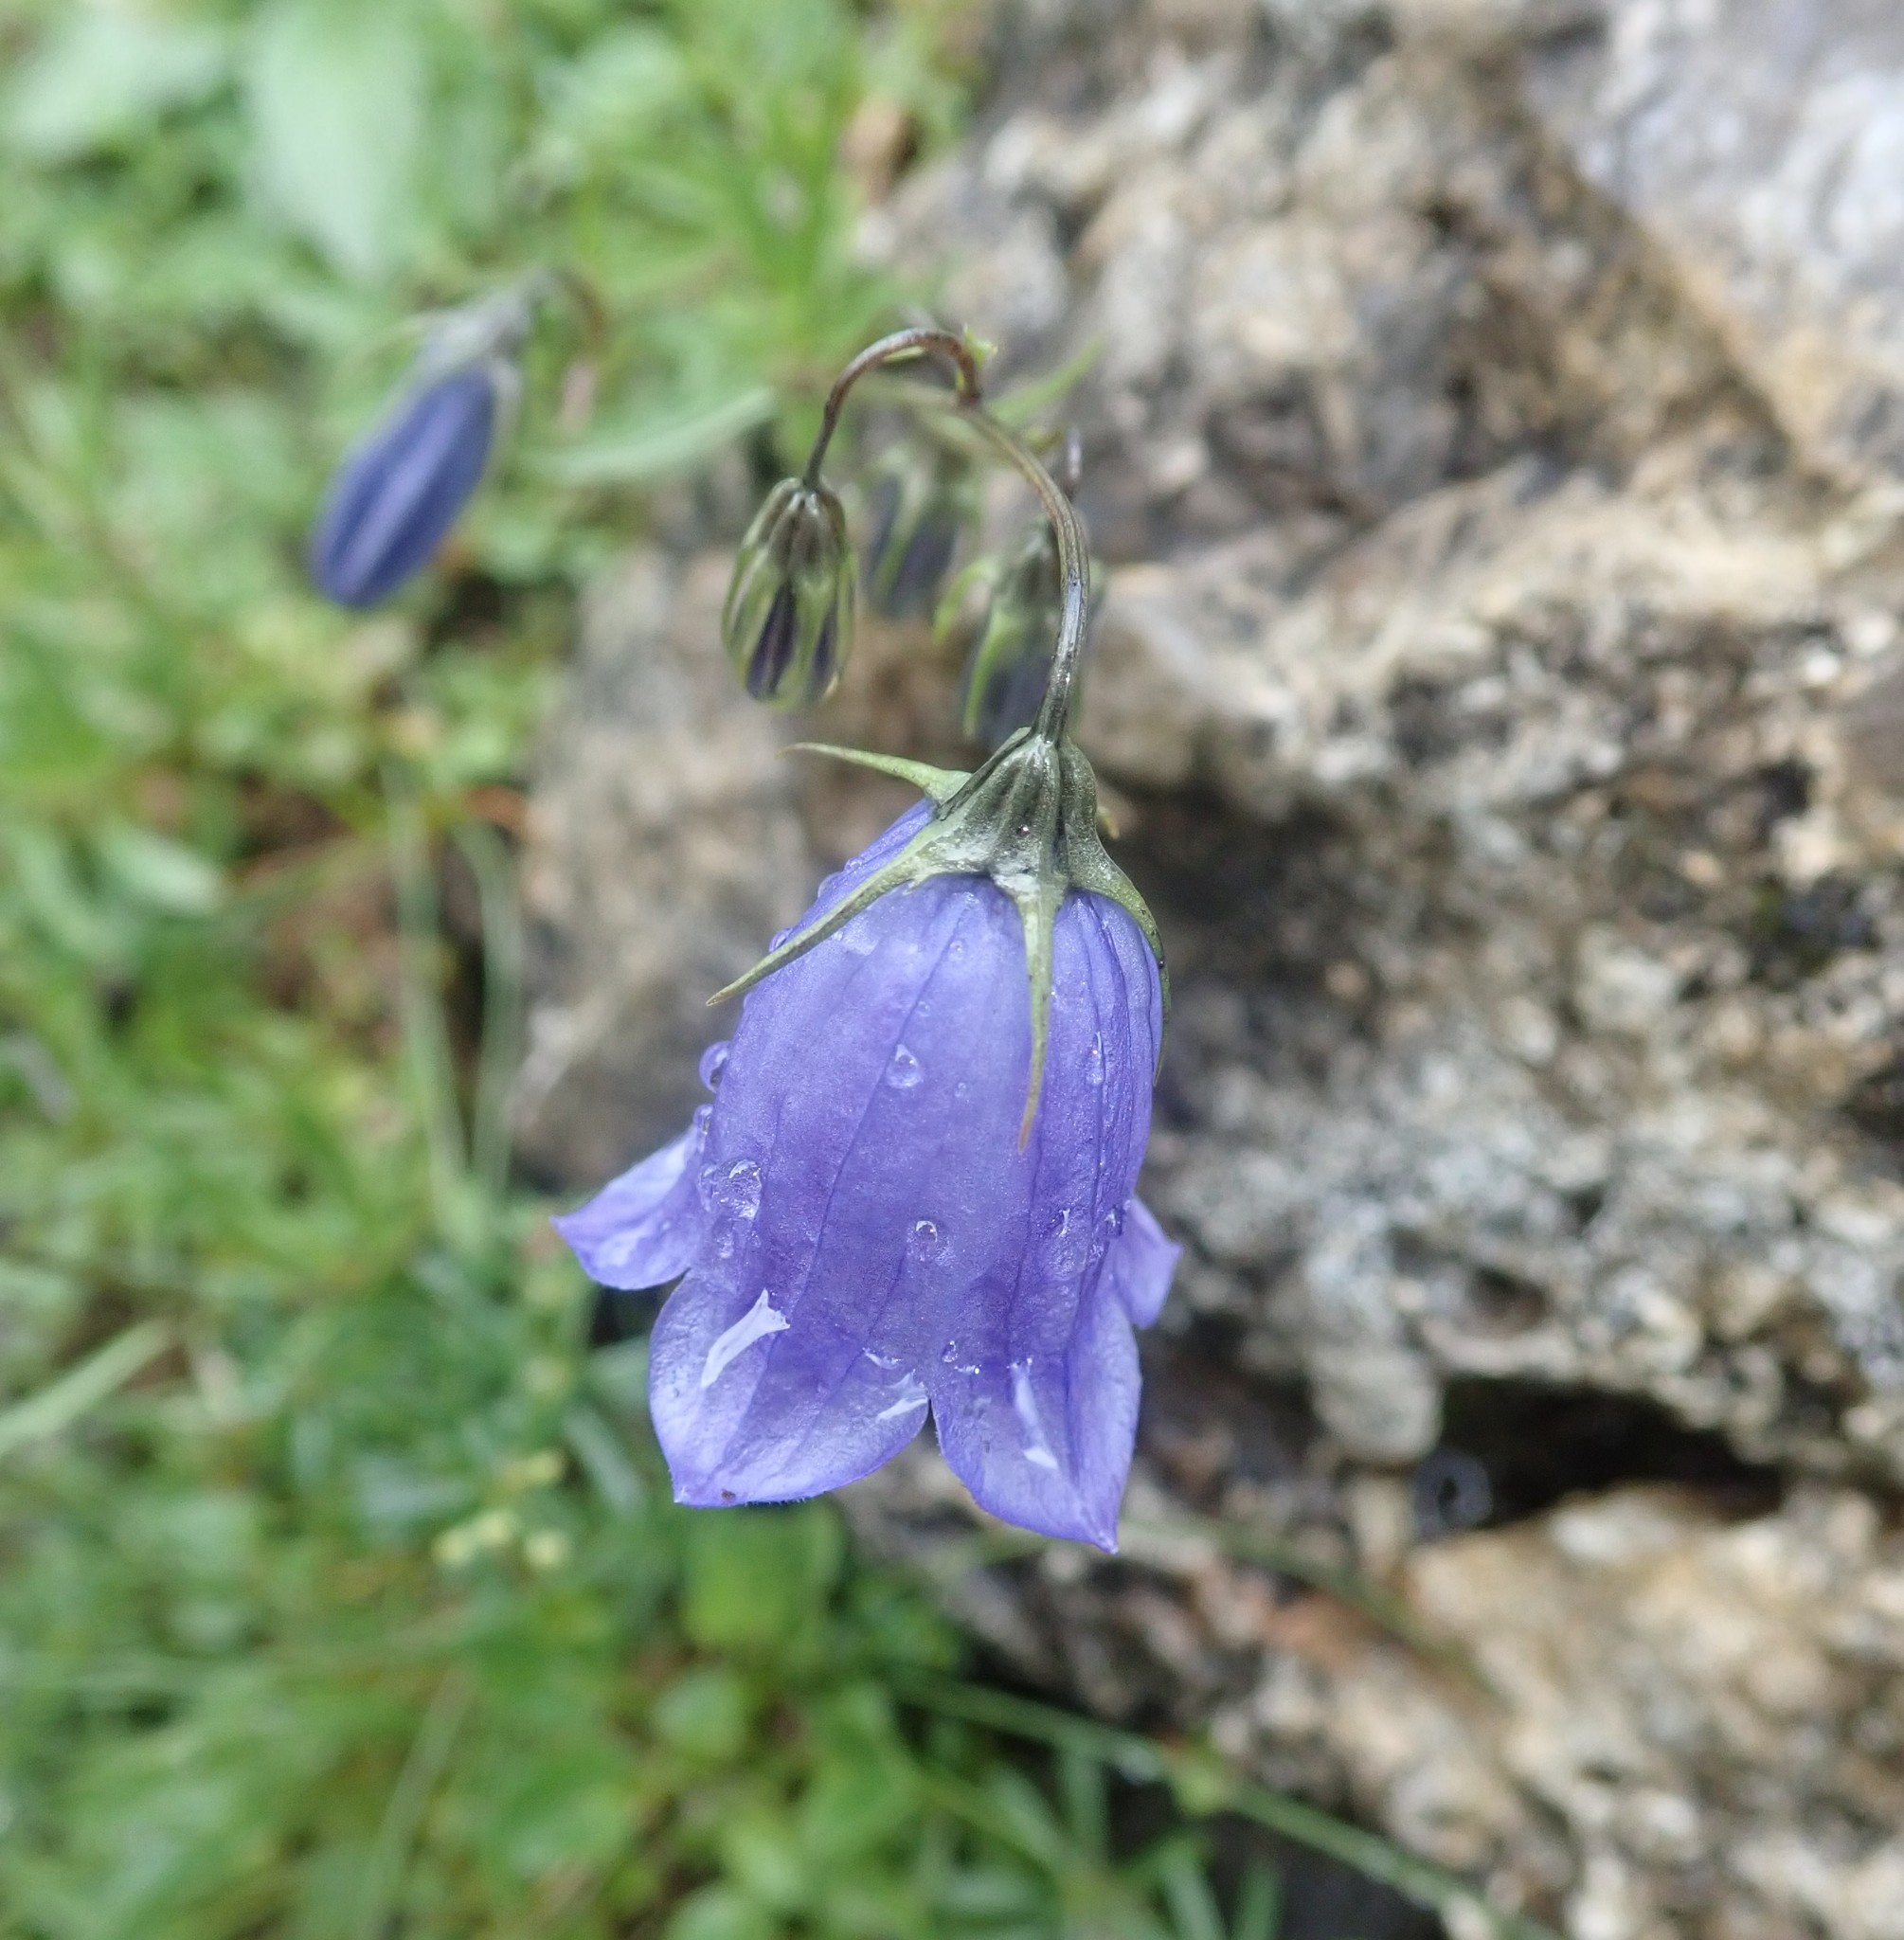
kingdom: Plantae
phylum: Tracheophyta
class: Magnoliopsida
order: Asterales
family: Campanulaceae
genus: Campanula
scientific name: Campanula cochleariifolia
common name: Fairies'-thimbles
